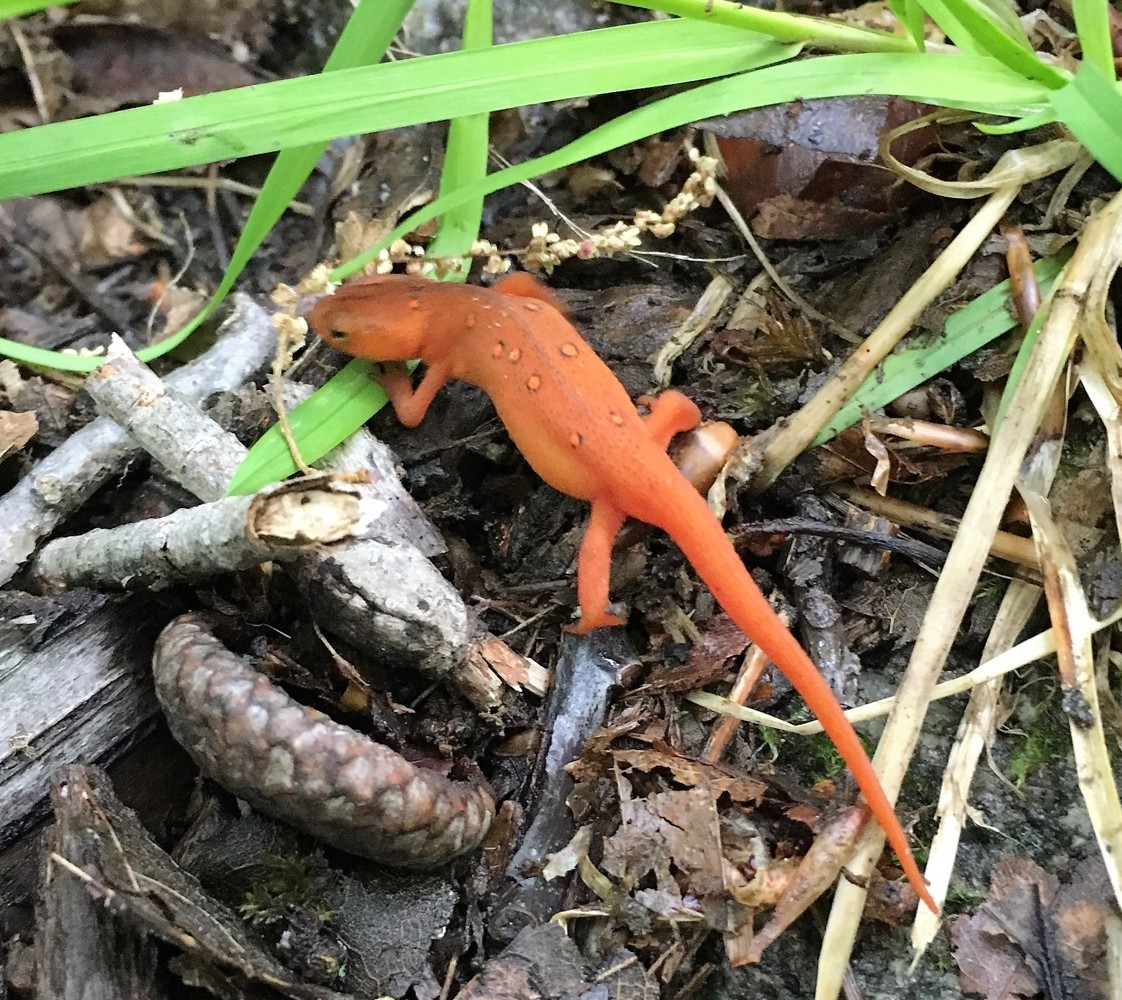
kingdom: Animalia
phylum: Chordata
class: Amphibia
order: Caudata
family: Salamandridae
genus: Notophthalmus
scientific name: Notophthalmus viridescens
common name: Eastern newt
